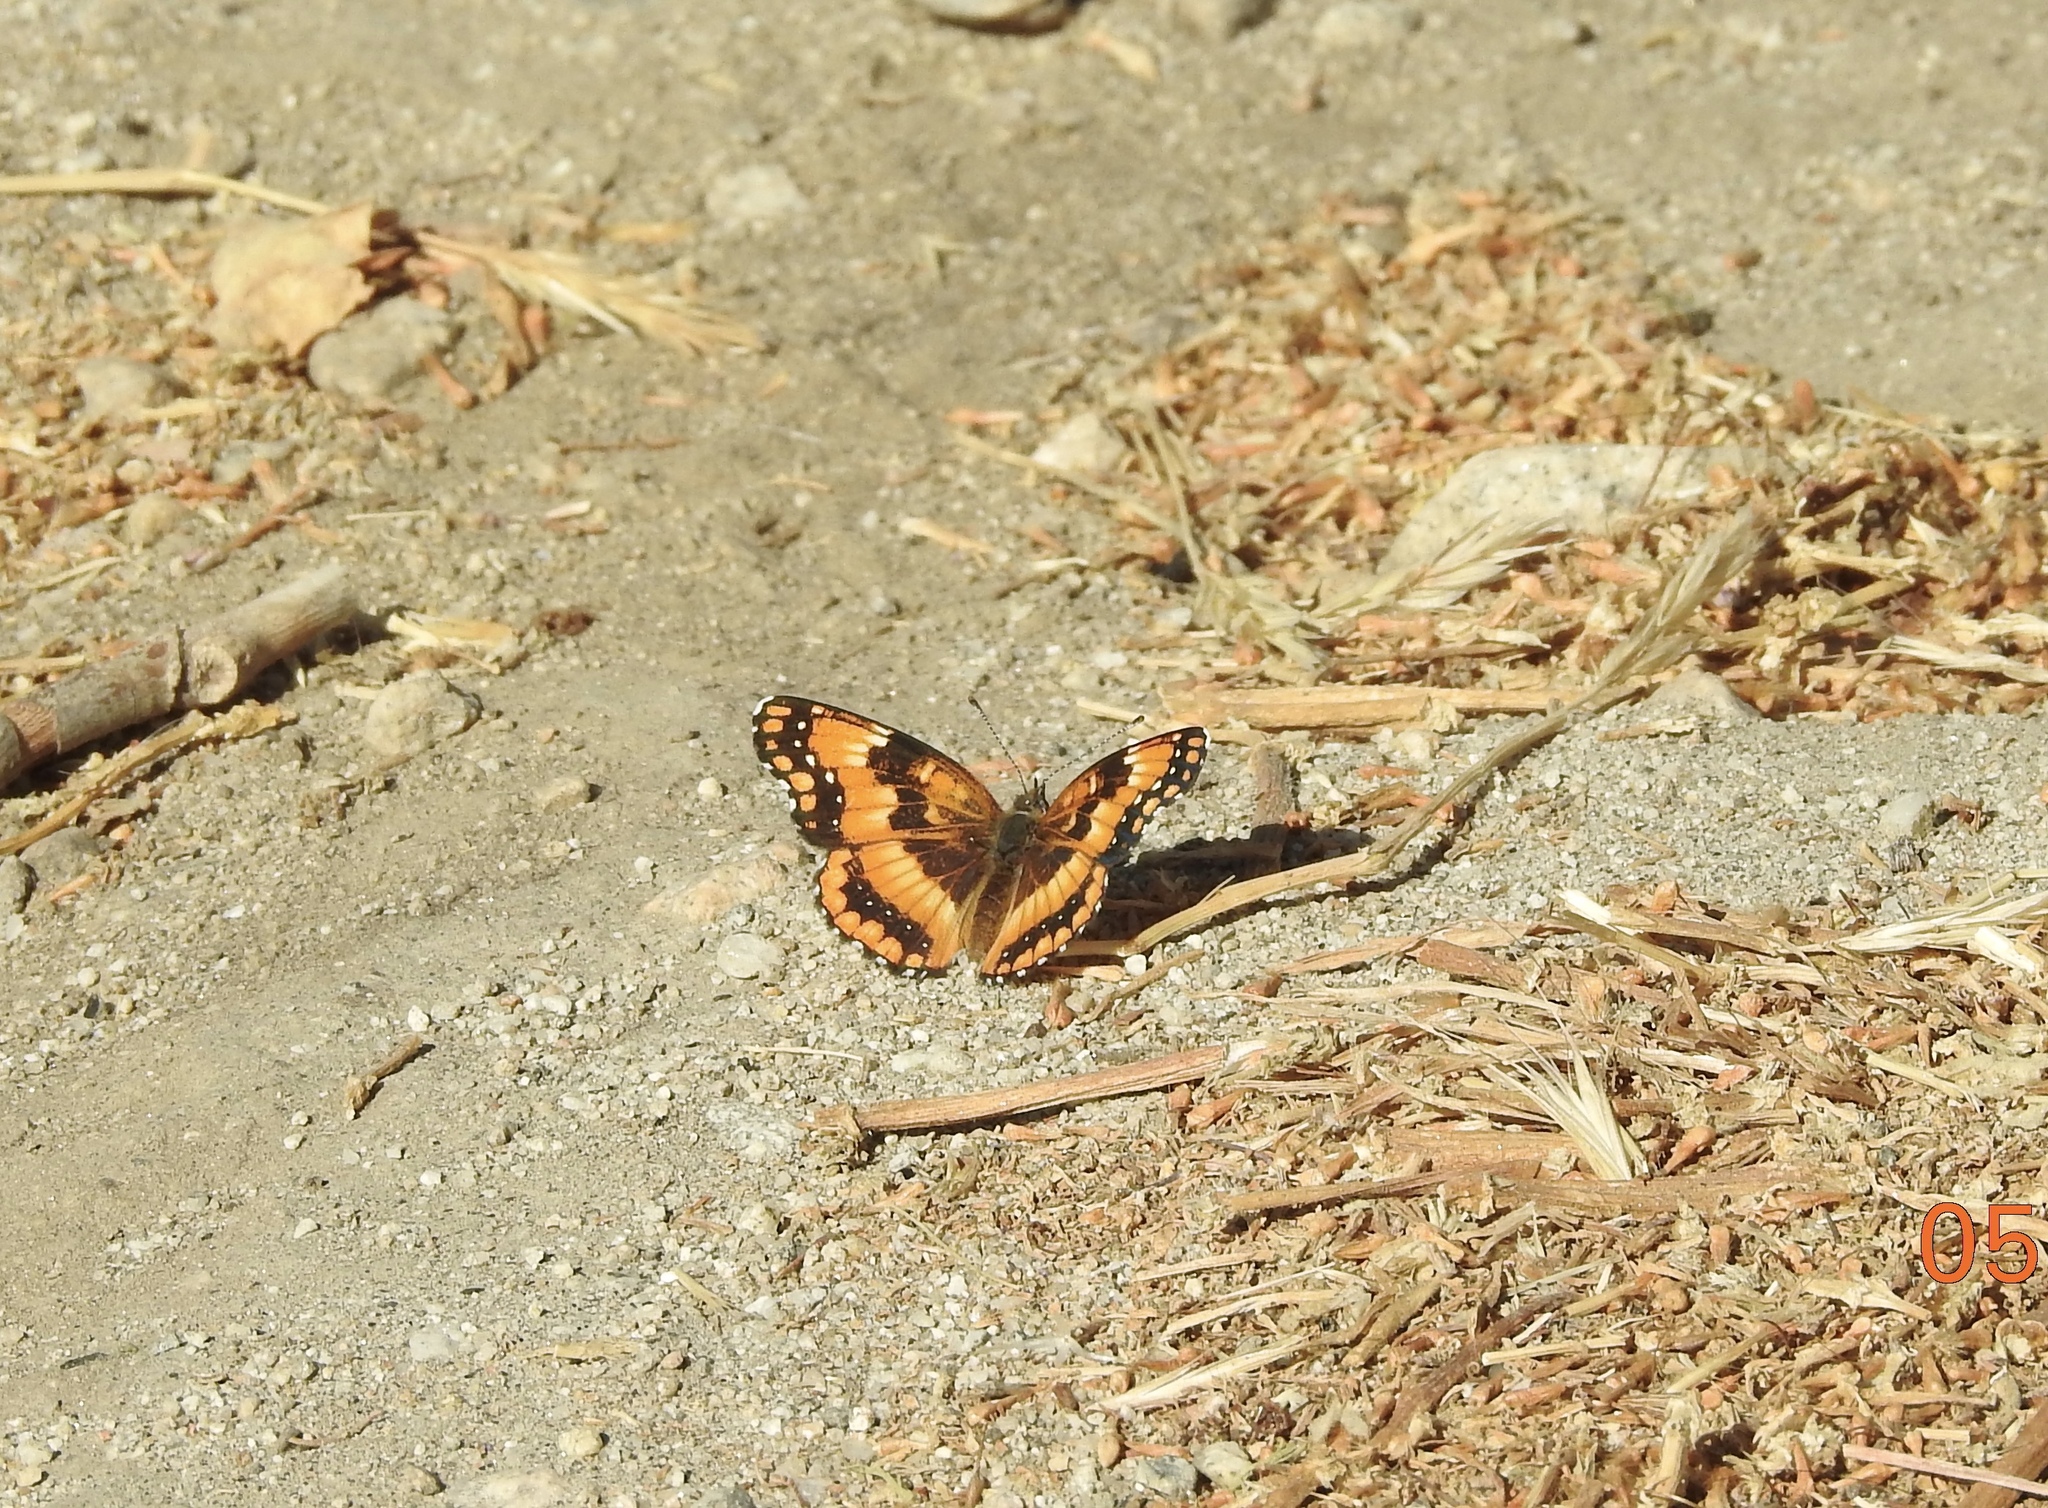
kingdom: Animalia
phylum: Arthropoda
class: Insecta
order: Lepidoptera
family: Nymphalidae
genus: Chlosyne
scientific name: Chlosyne californica
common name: California patch
